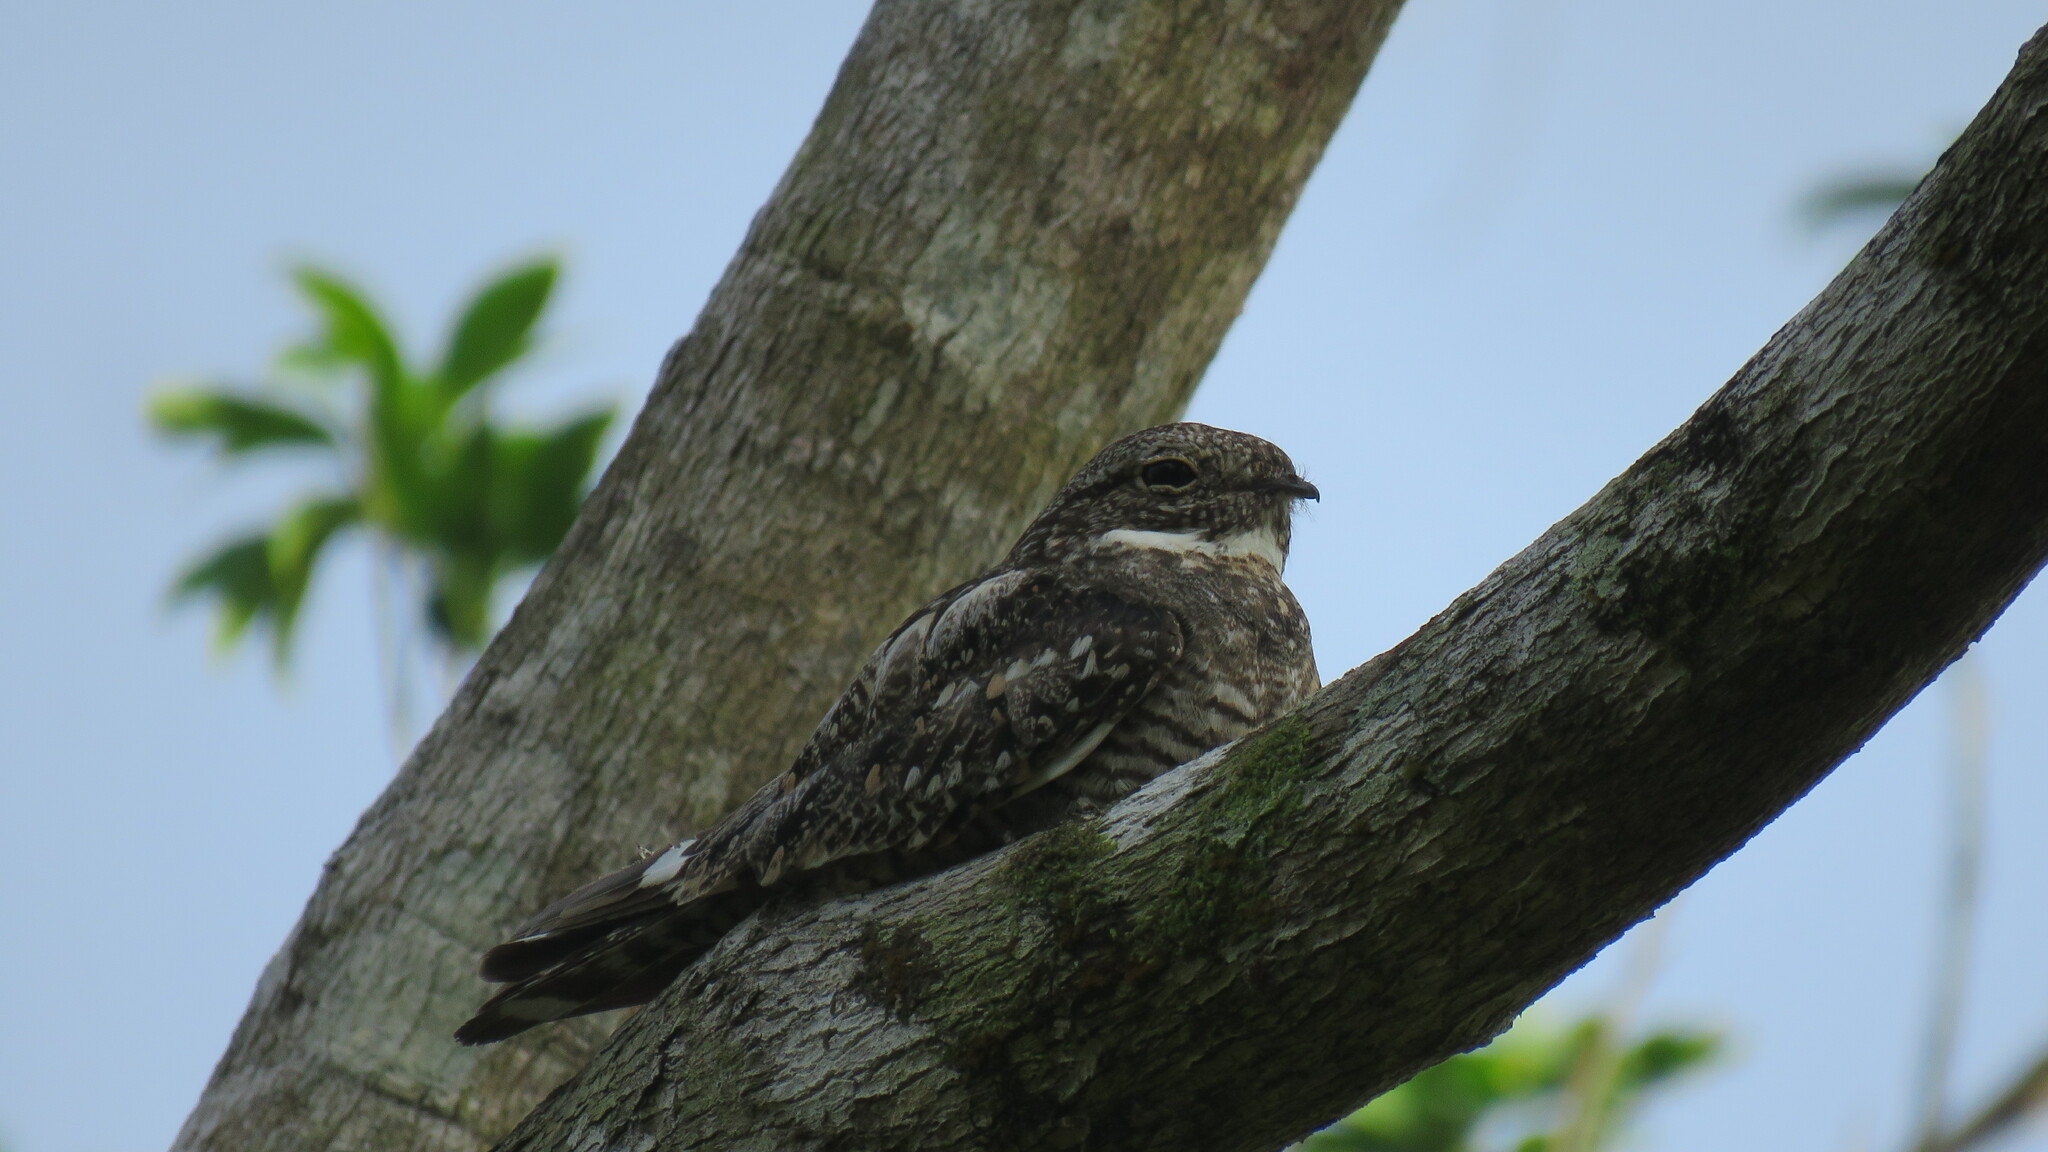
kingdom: Animalia
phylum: Chordata
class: Aves
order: Caprimulgiformes
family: Caprimulgidae
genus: Chordeiles
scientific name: Chordeiles minor
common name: Common nighthawk
